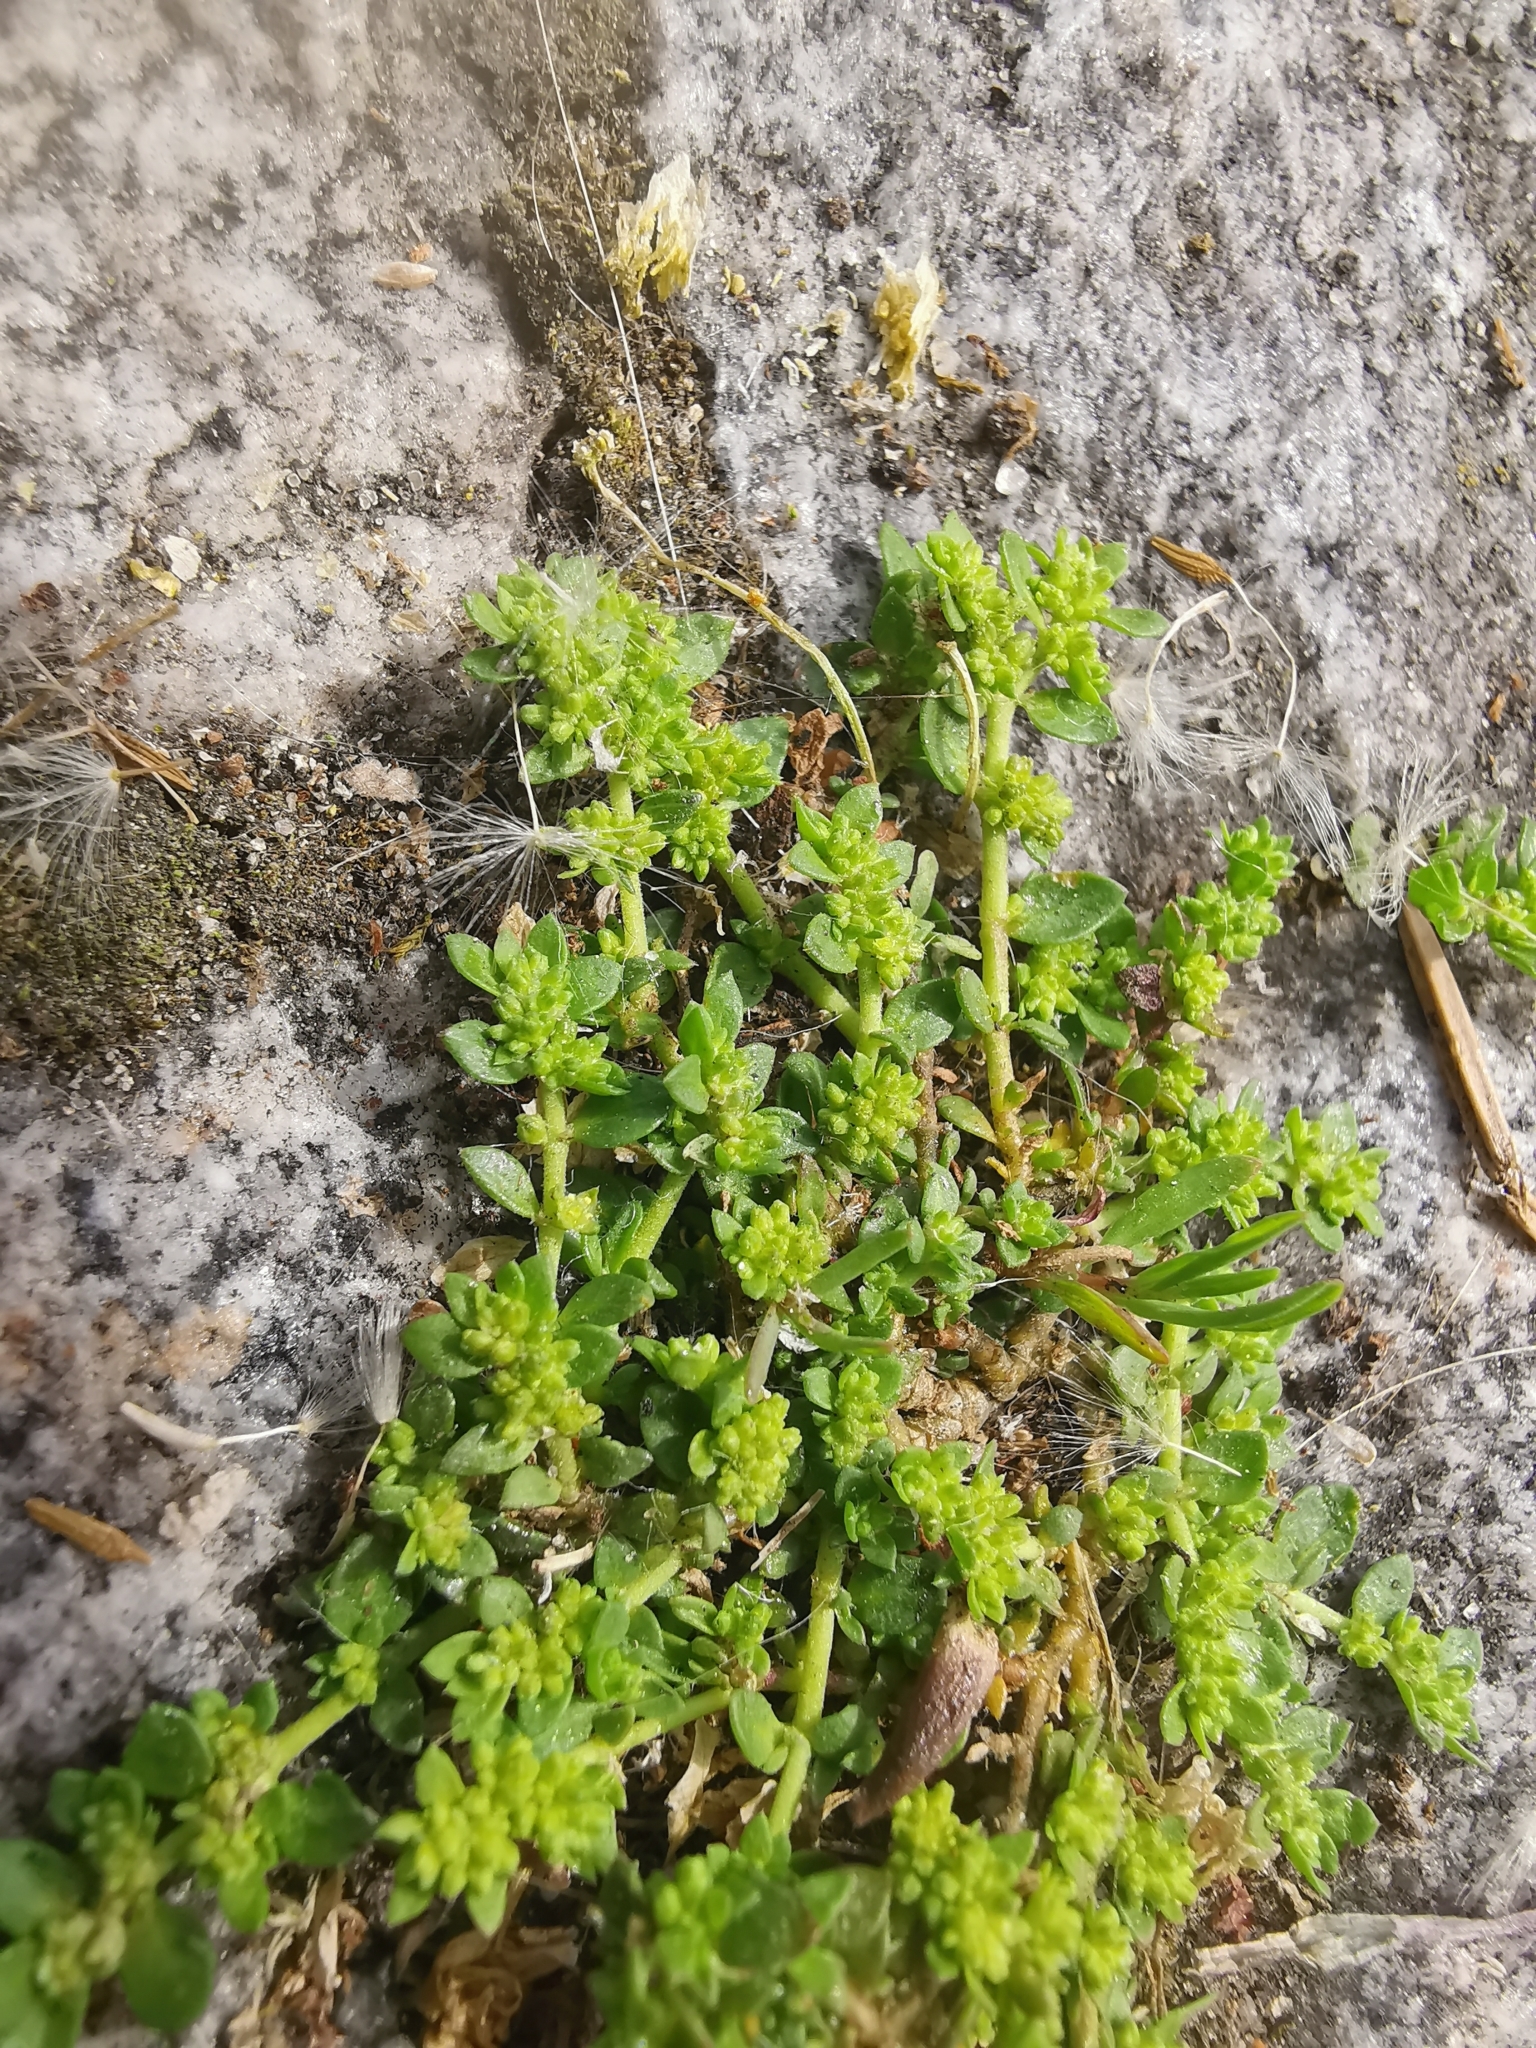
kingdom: Plantae
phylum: Tracheophyta
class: Magnoliopsida
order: Caryophyllales
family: Caryophyllaceae
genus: Herniaria
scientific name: Herniaria glabra
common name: Smooth rupturewort
